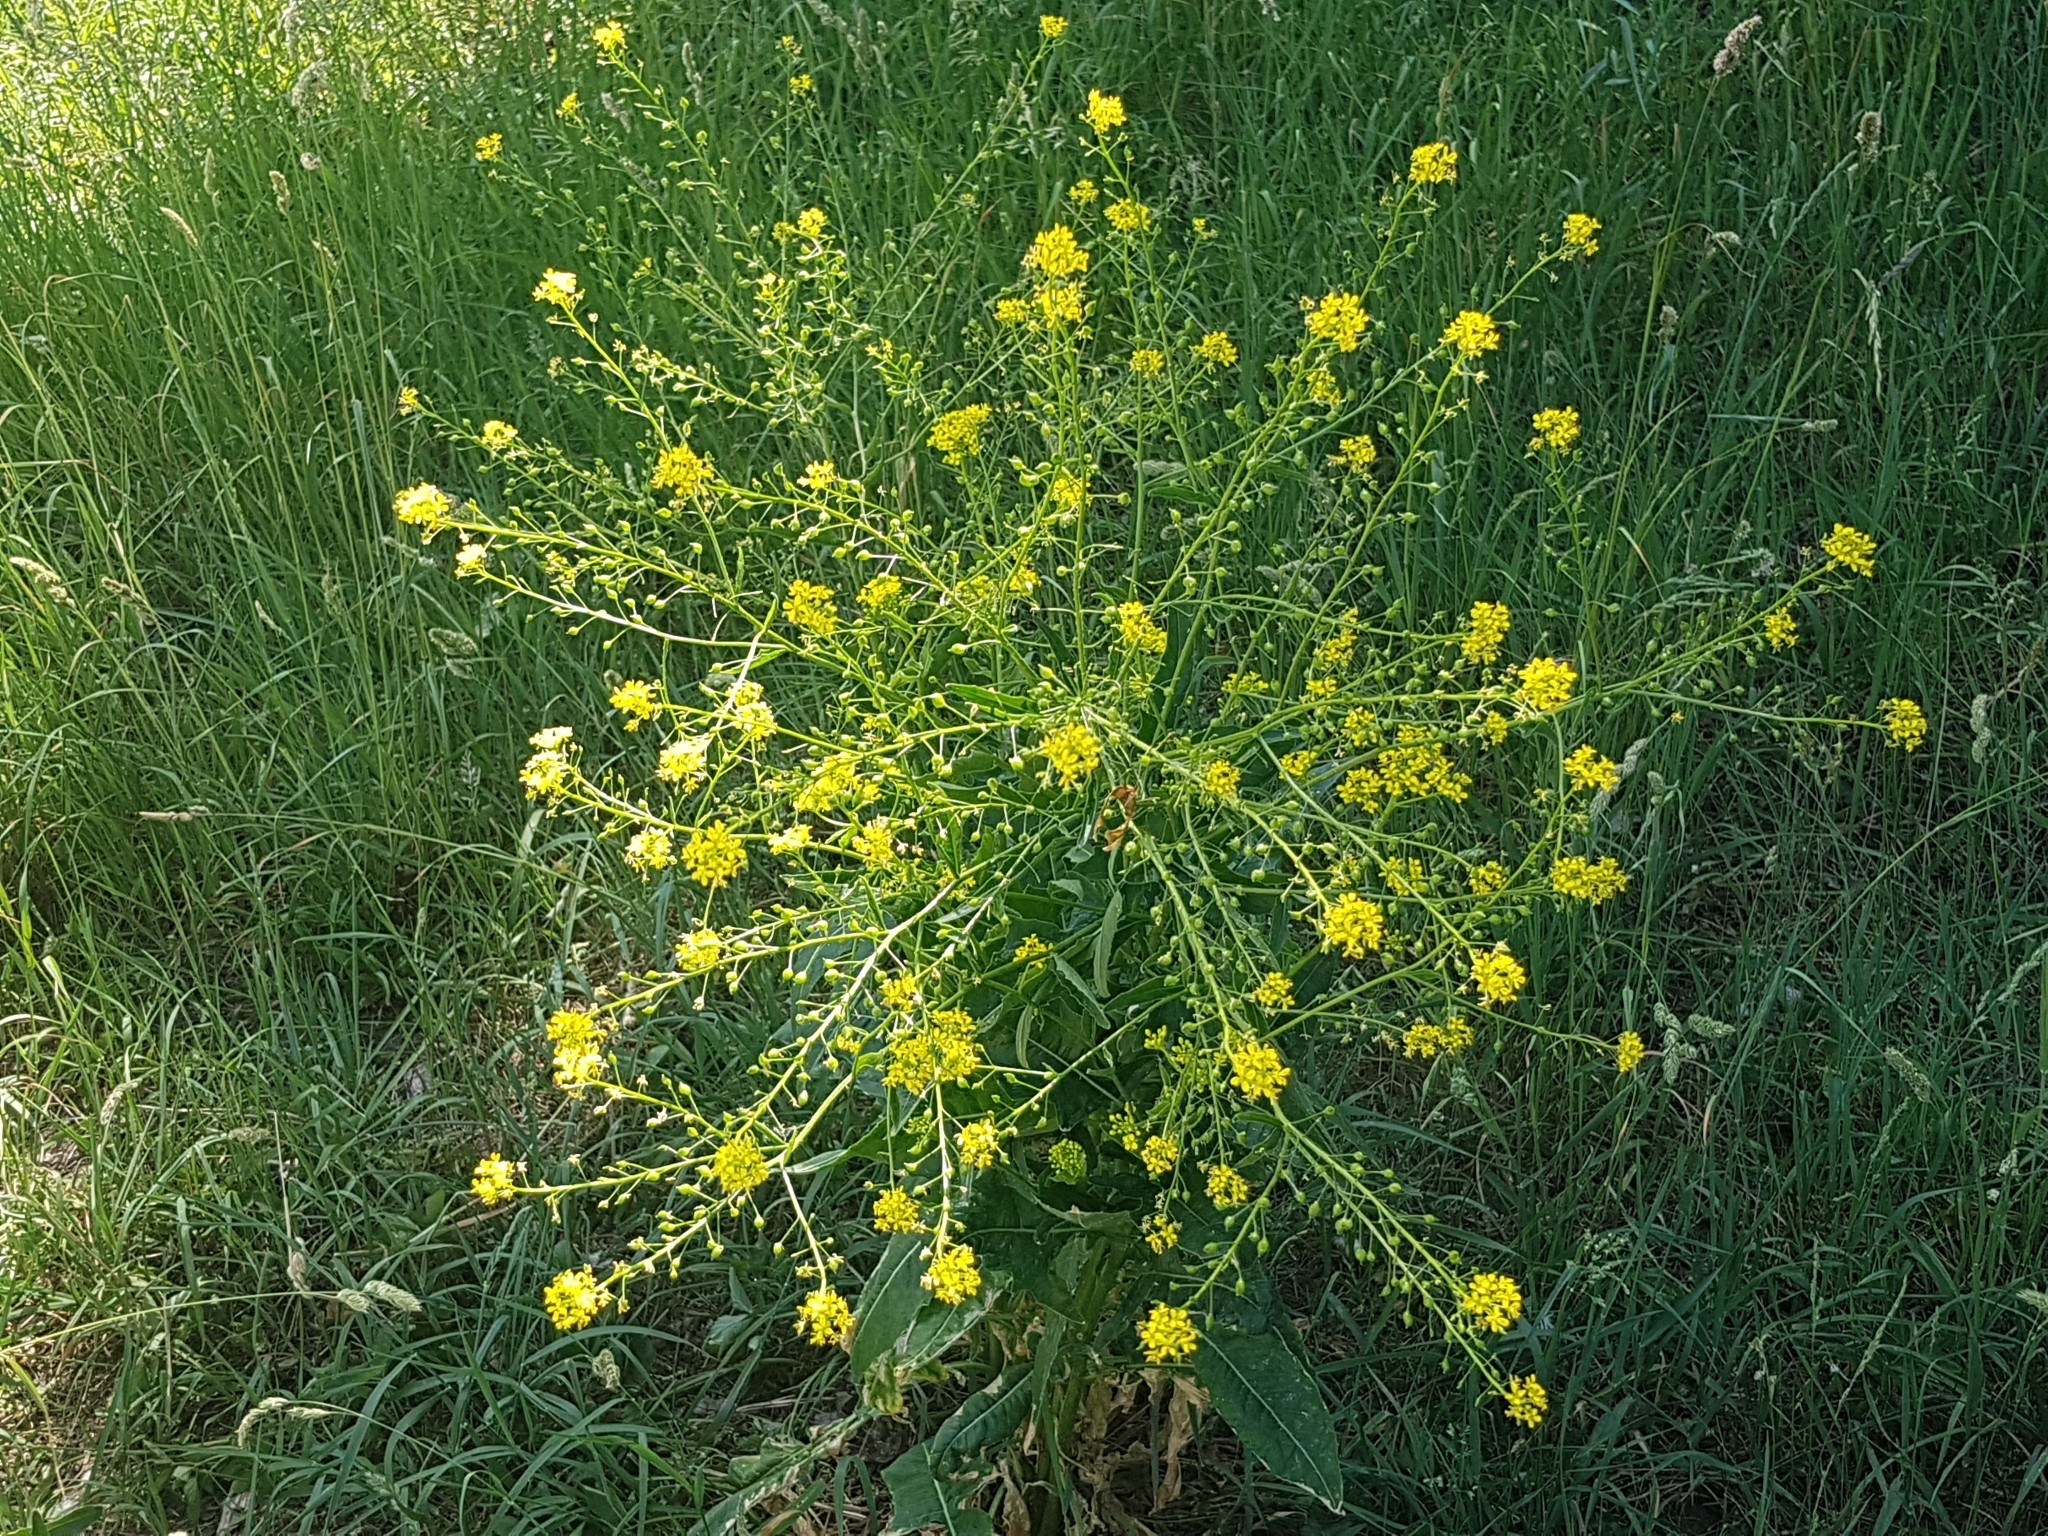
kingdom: Plantae
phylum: Tracheophyta
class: Magnoliopsida
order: Brassicales
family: Brassicaceae
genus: Bunias
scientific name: Bunias orientalis
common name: Warty-cabbage
